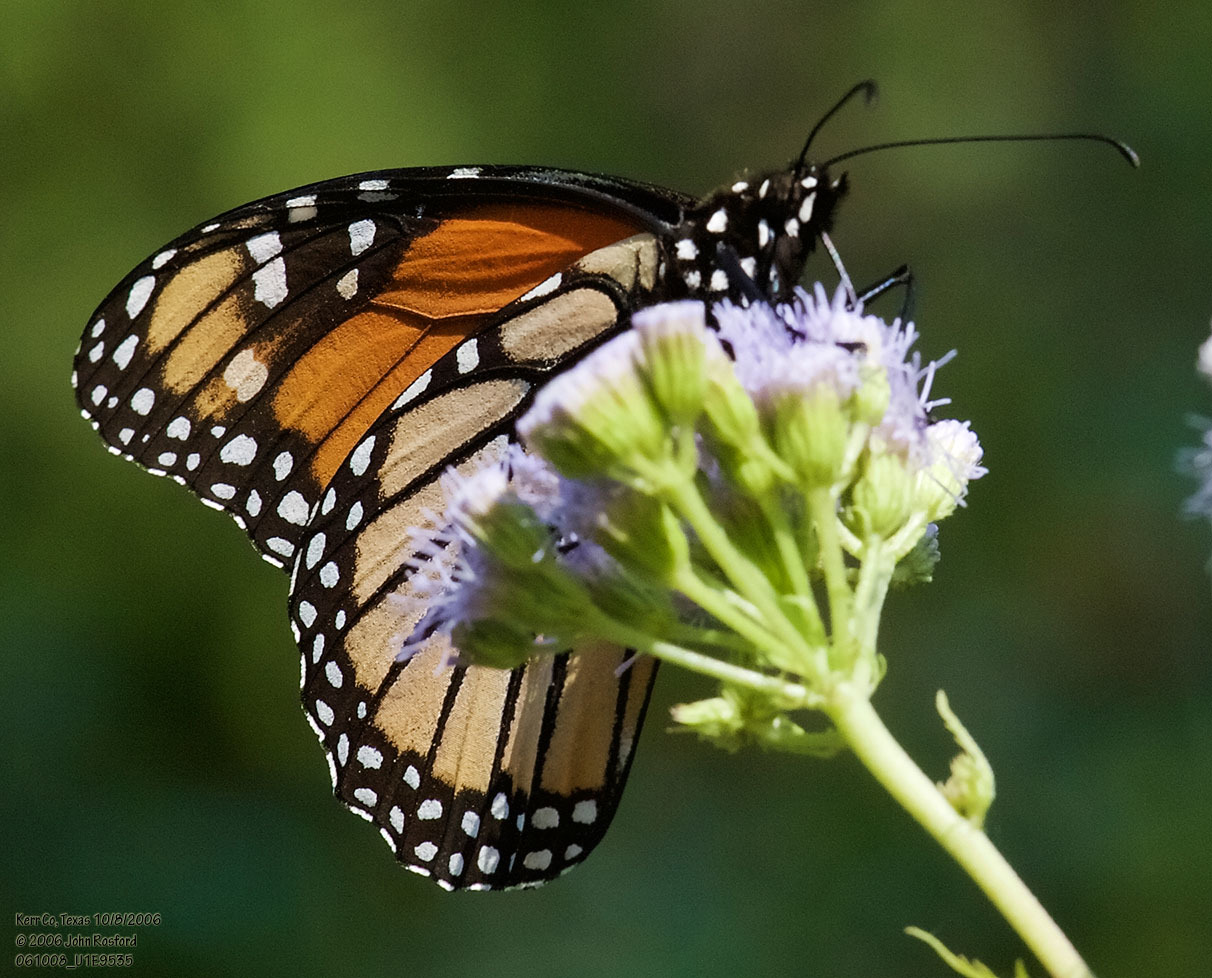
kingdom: Animalia
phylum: Arthropoda
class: Insecta
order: Lepidoptera
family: Nymphalidae
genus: Danaus
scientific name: Danaus plexippus
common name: Monarch
